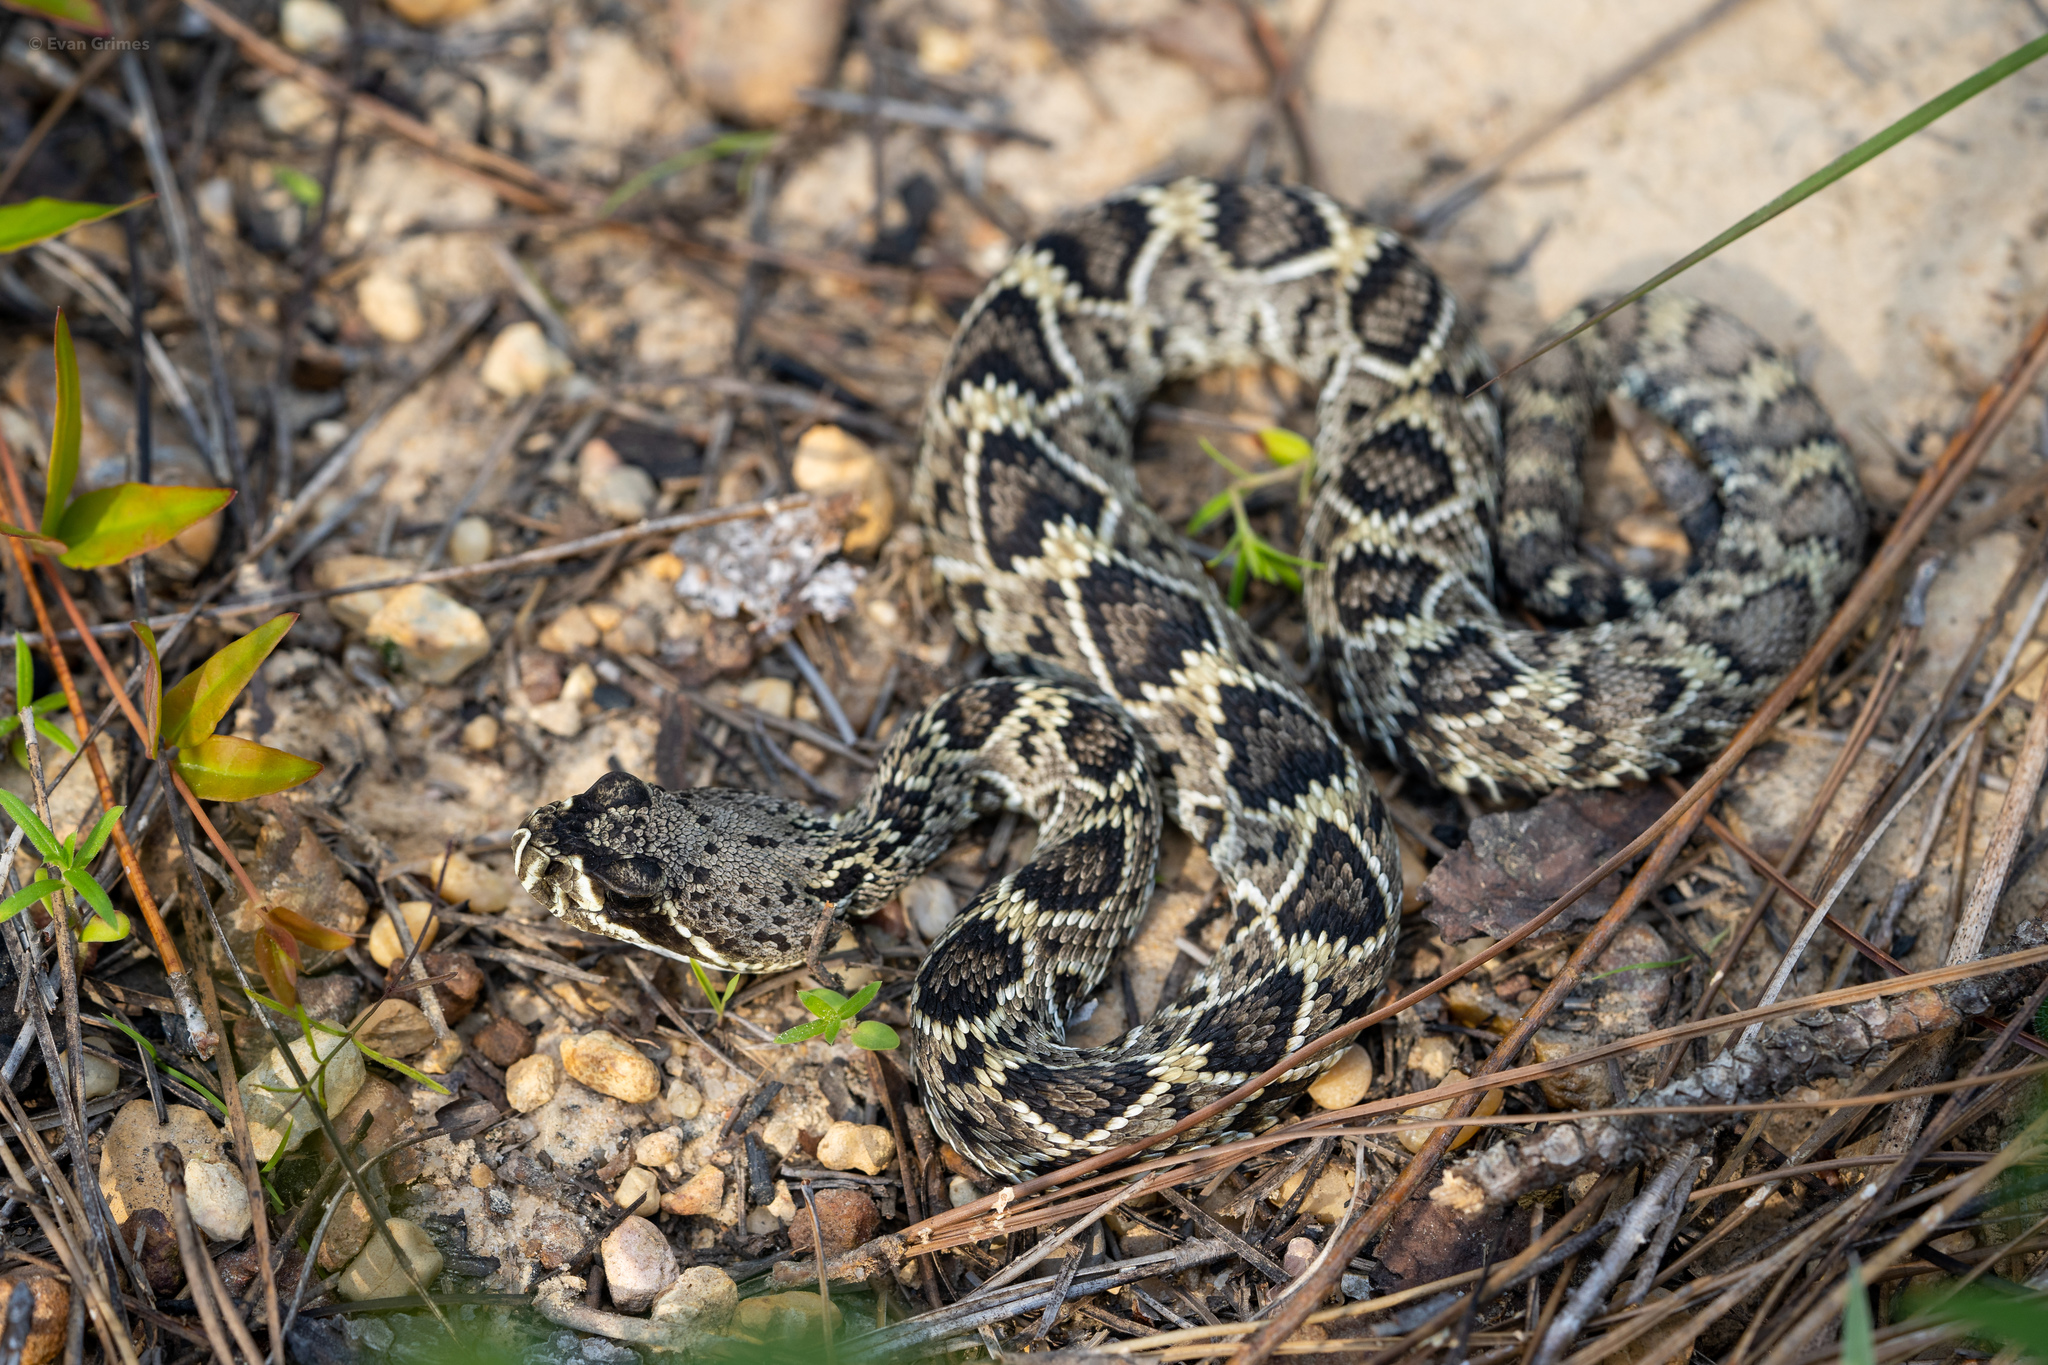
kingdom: Animalia
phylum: Chordata
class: Squamata
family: Viperidae
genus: Crotalus
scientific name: Crotalus adamanteus
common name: Eastern diamondback rattlesnake
